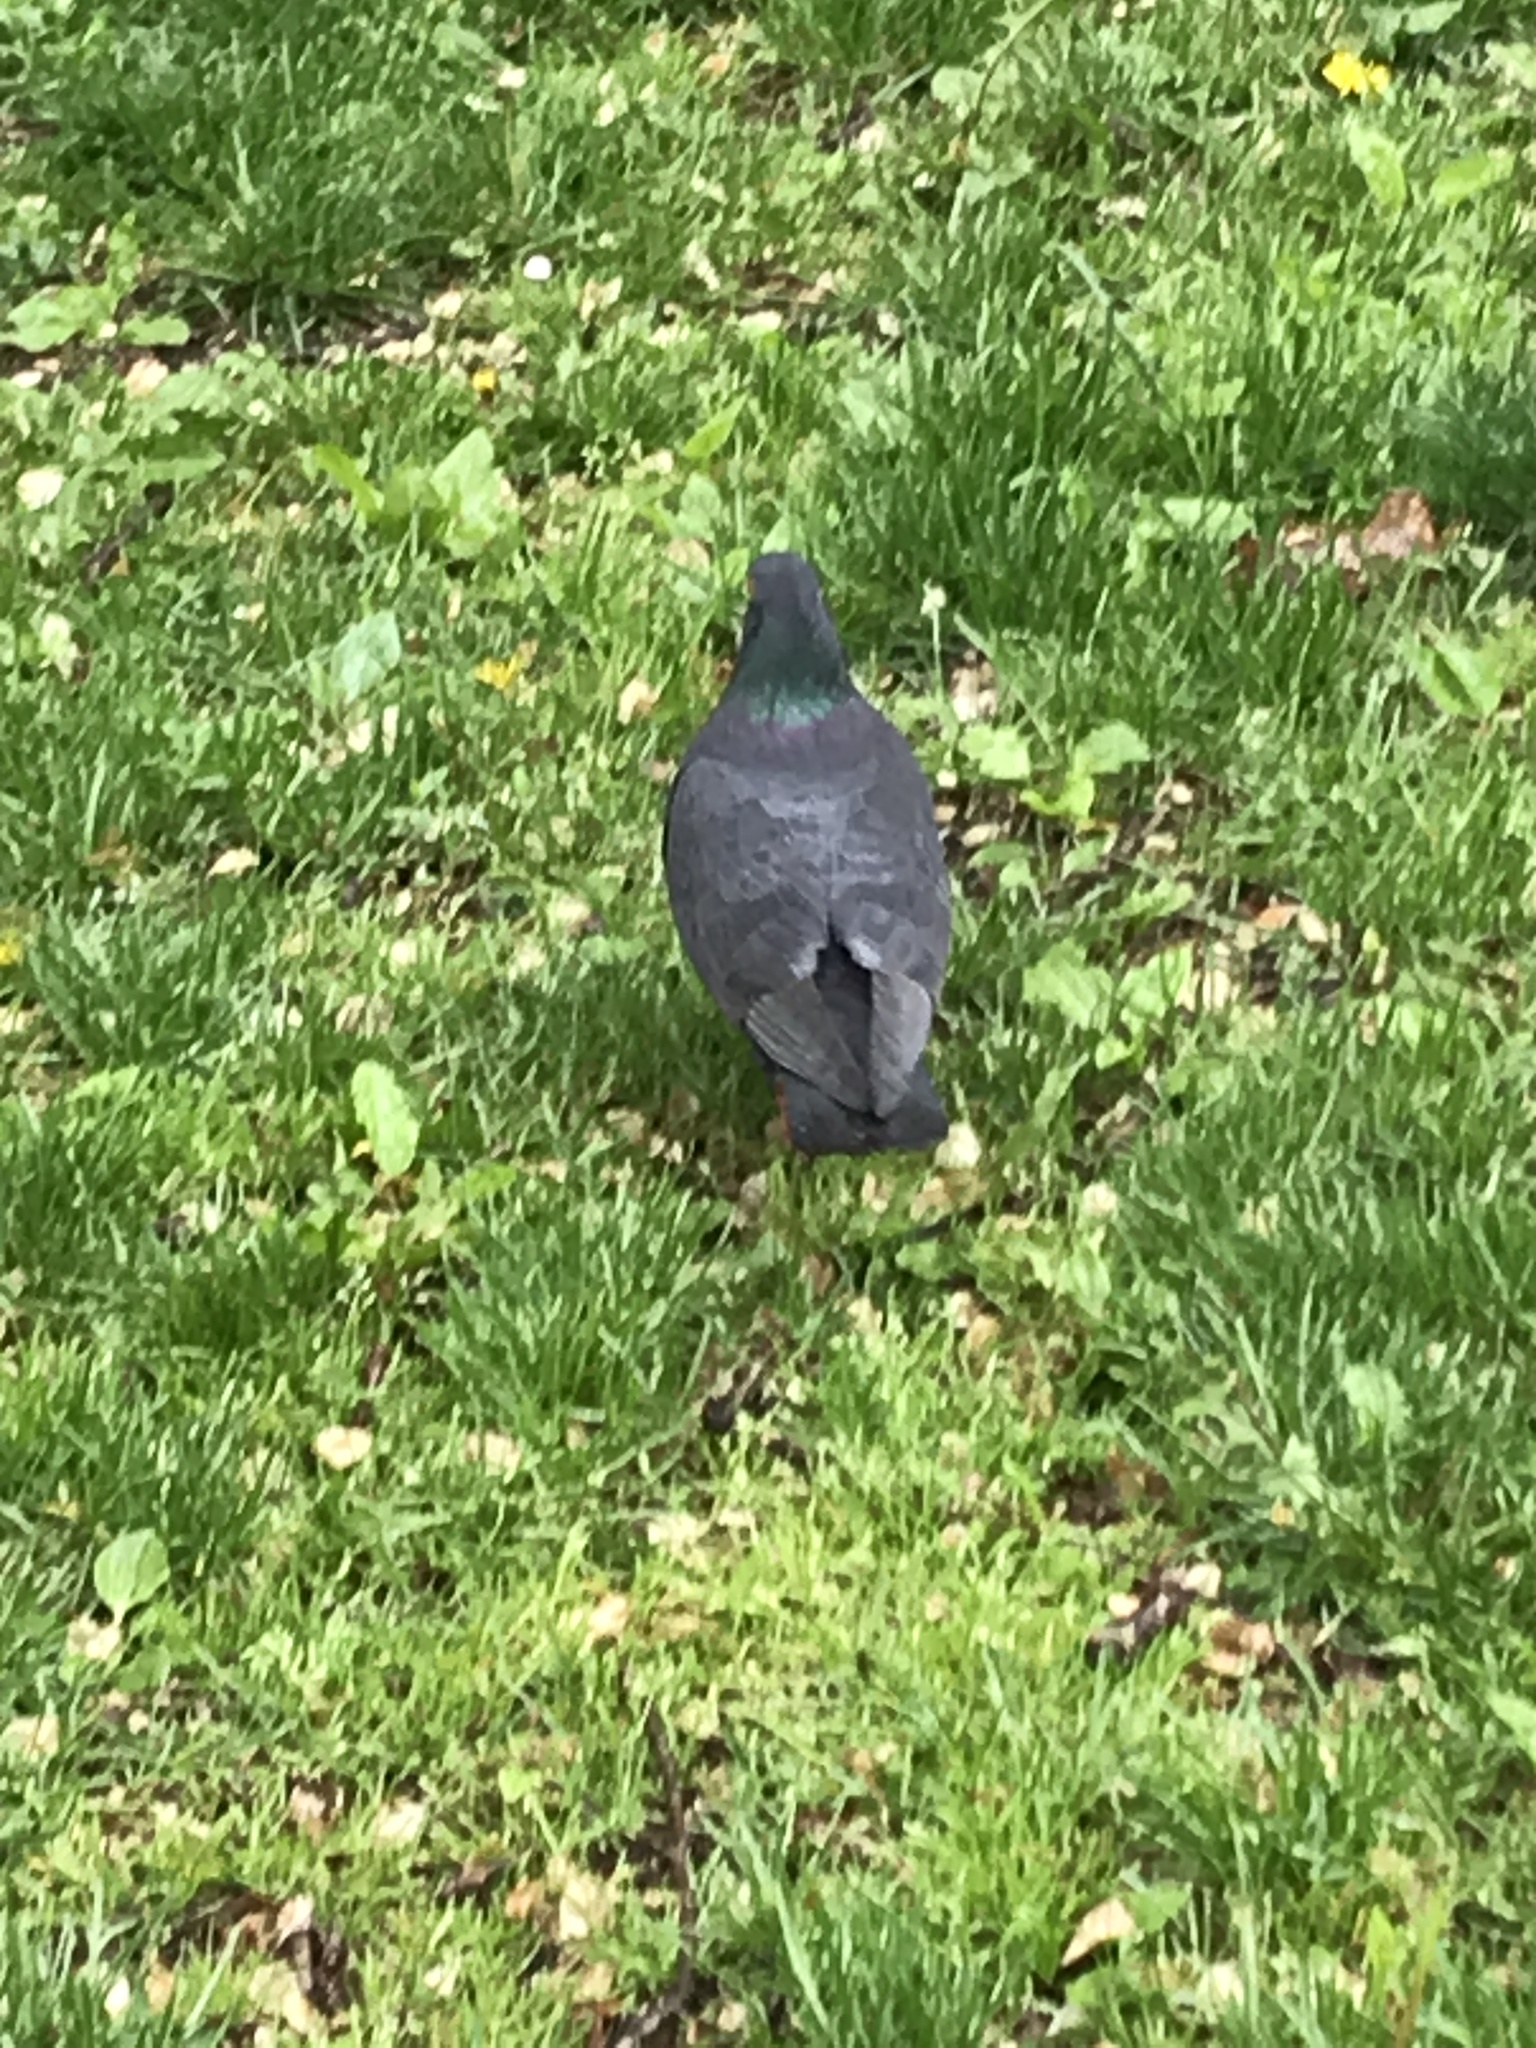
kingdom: Animalia
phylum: Chordata
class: Aves
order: Columbiformes
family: Columbidae
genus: Columba
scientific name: Columba livia
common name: Rock pigeon
